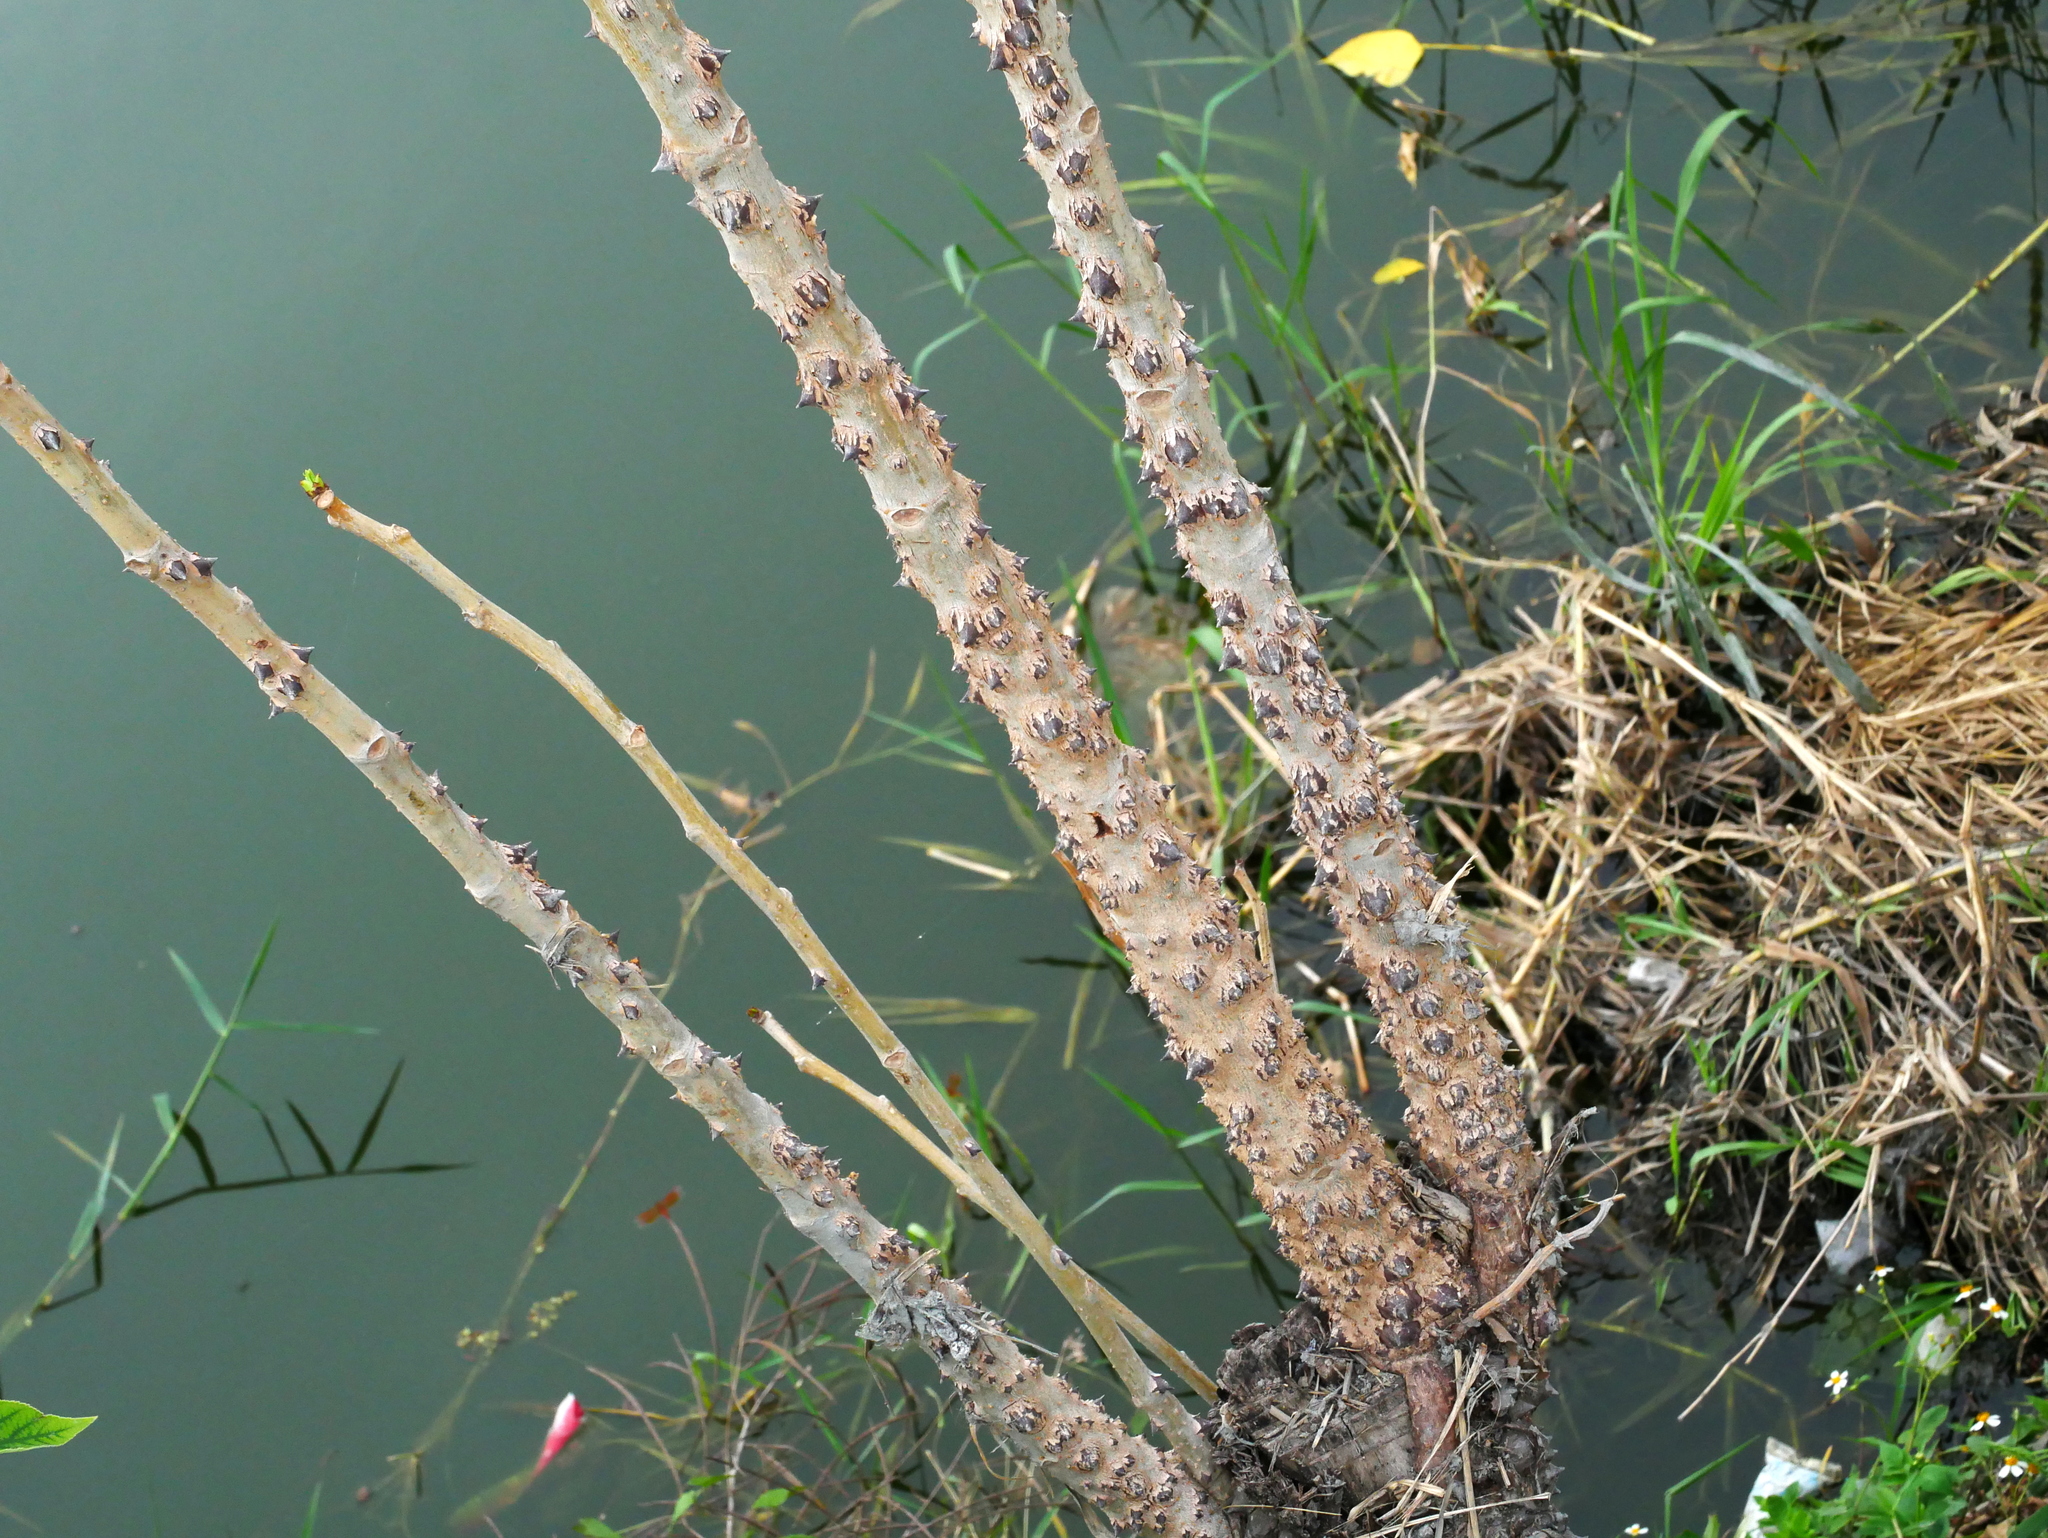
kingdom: Plantae
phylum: Tracheophyta
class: Magnoliopsida
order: Malpighiales
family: Euphorbiaceae
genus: Manihot
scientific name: Manihot esculenta
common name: Cassava
